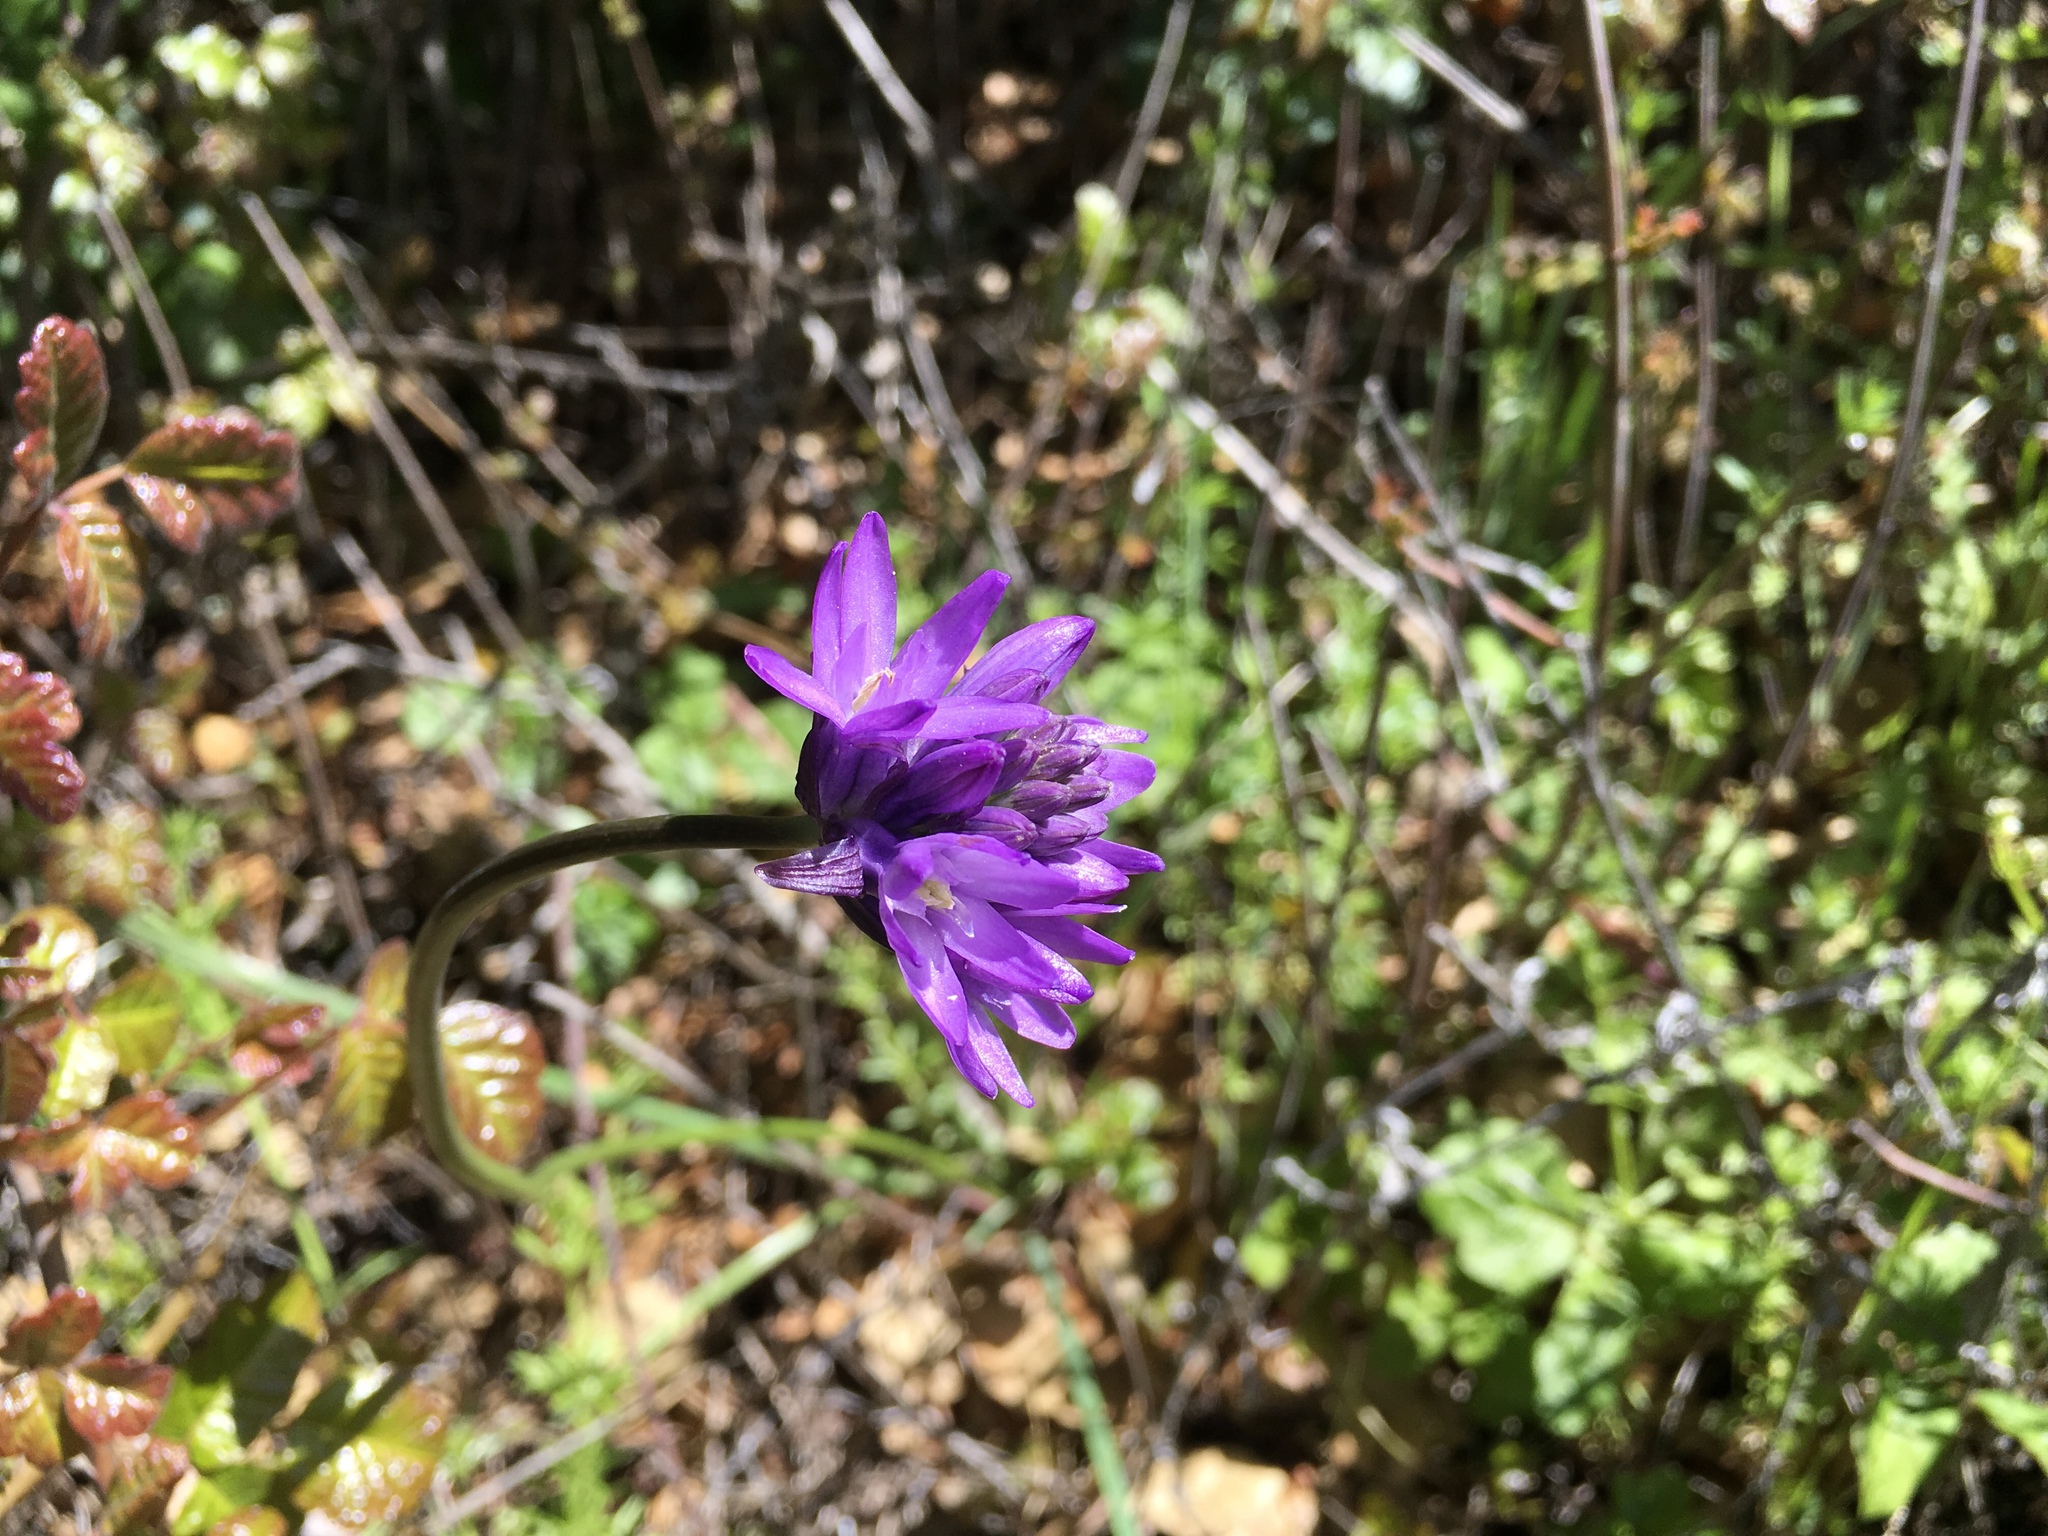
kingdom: Plantae
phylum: Tracheophyta
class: Liliopsida
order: Asparagales
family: Asparagaceae
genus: Dichelostemma
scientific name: Dichelostemma congestum
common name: Fork-tooth ookow
